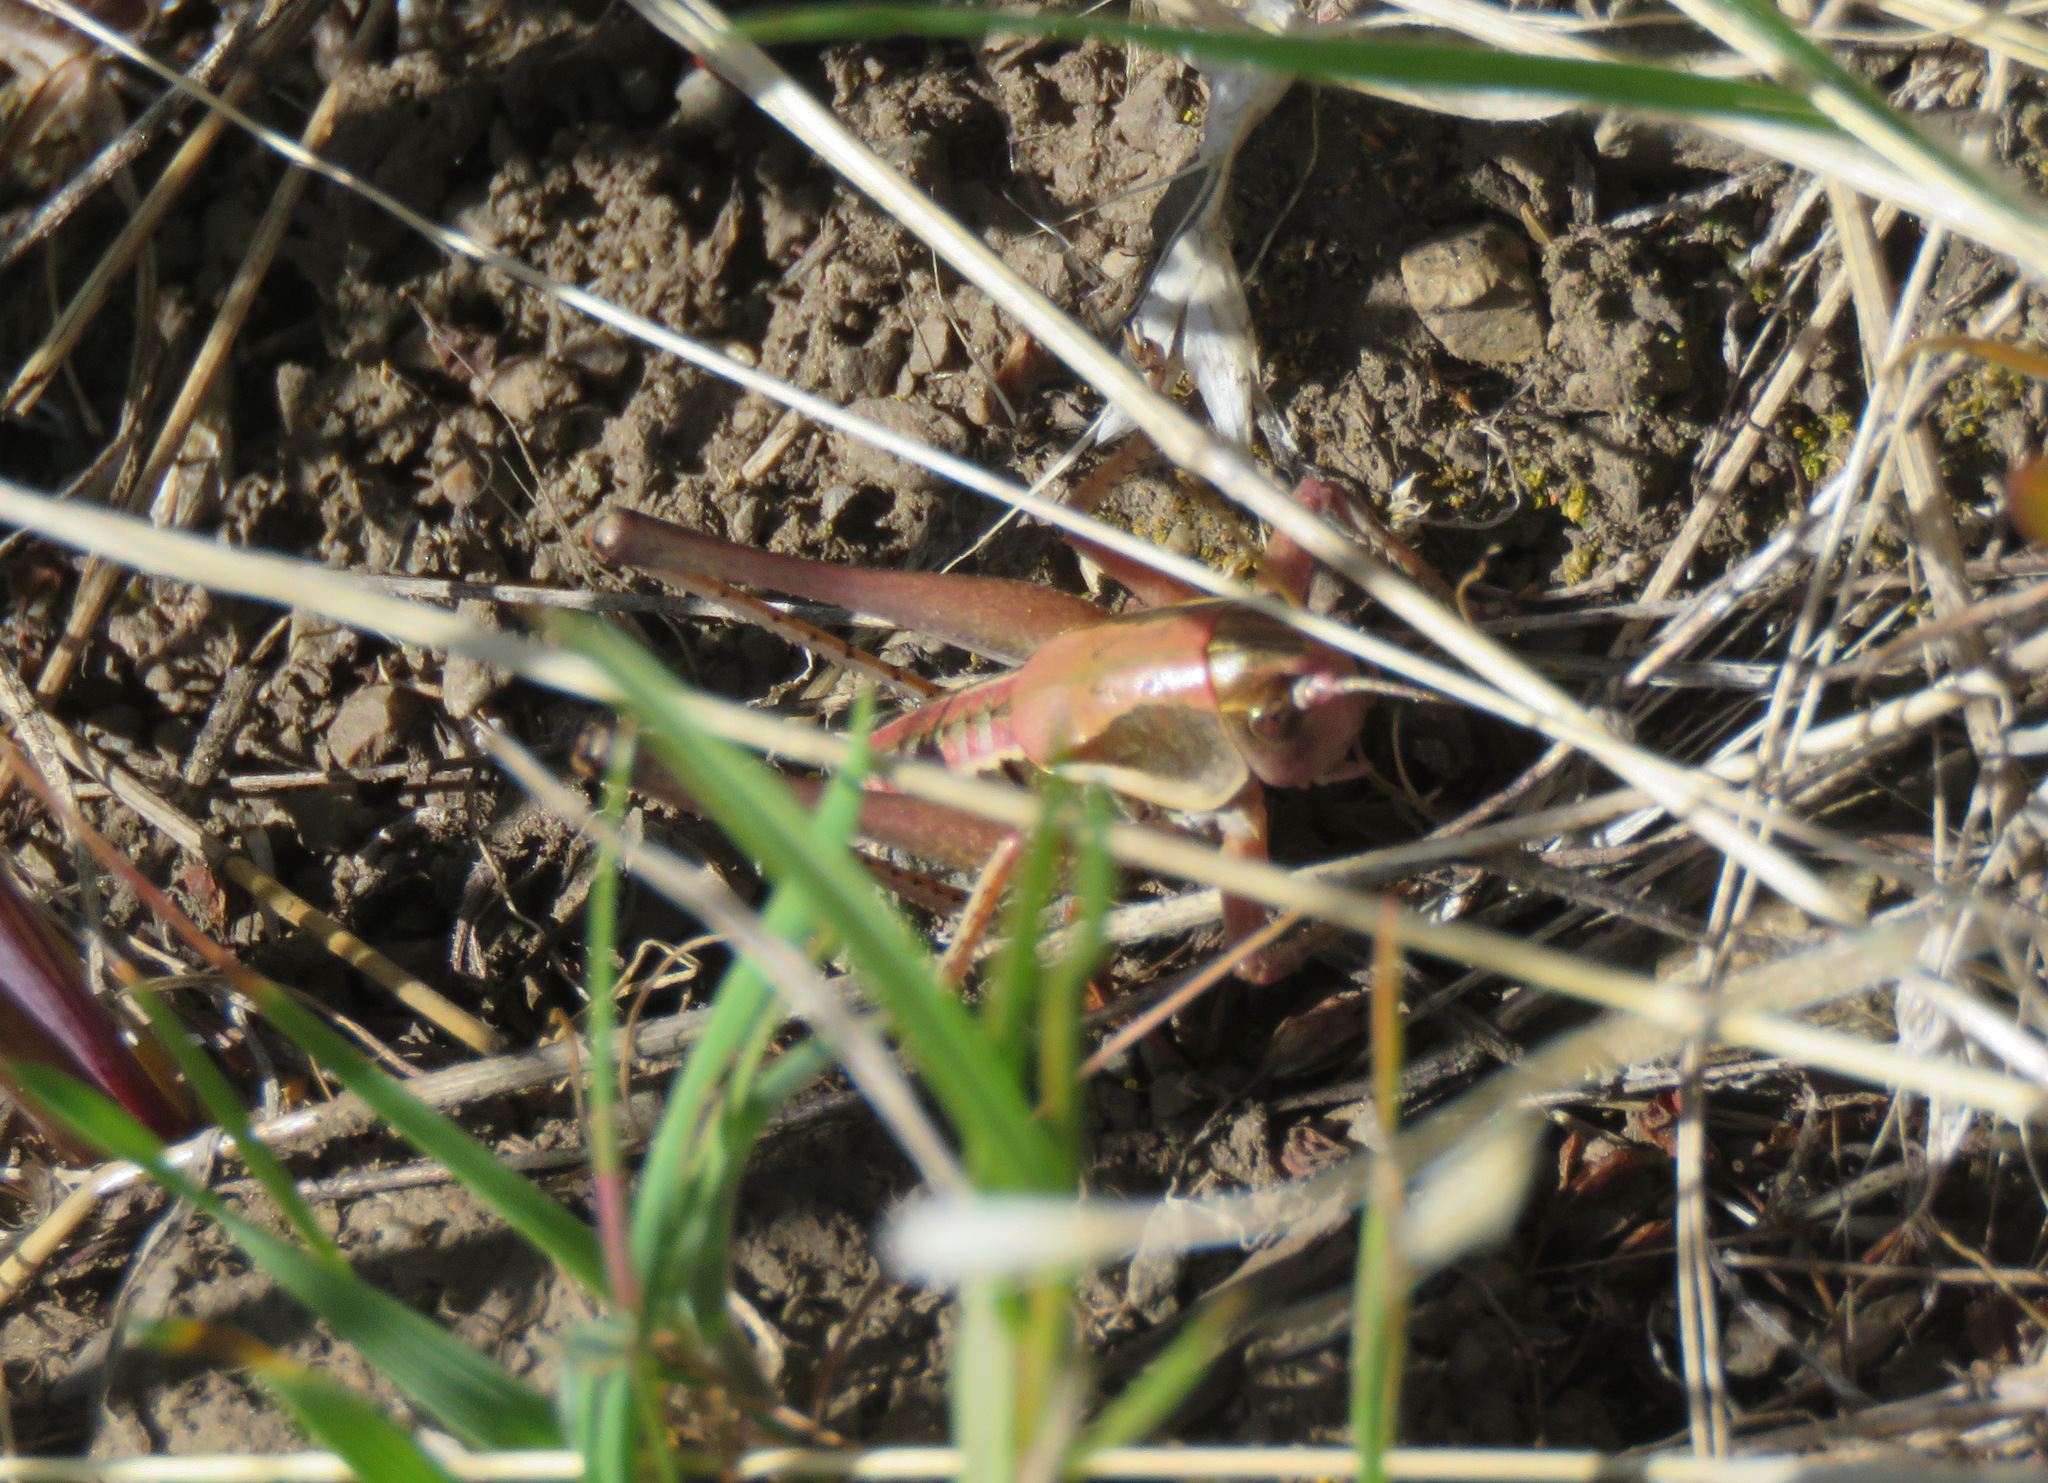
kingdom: Animalia
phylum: Arthropoda
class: Insecta
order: Orthoptera
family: Tettigoniidae
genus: Anabrus
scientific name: Anabrus longipes
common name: Long-legged anabrus
